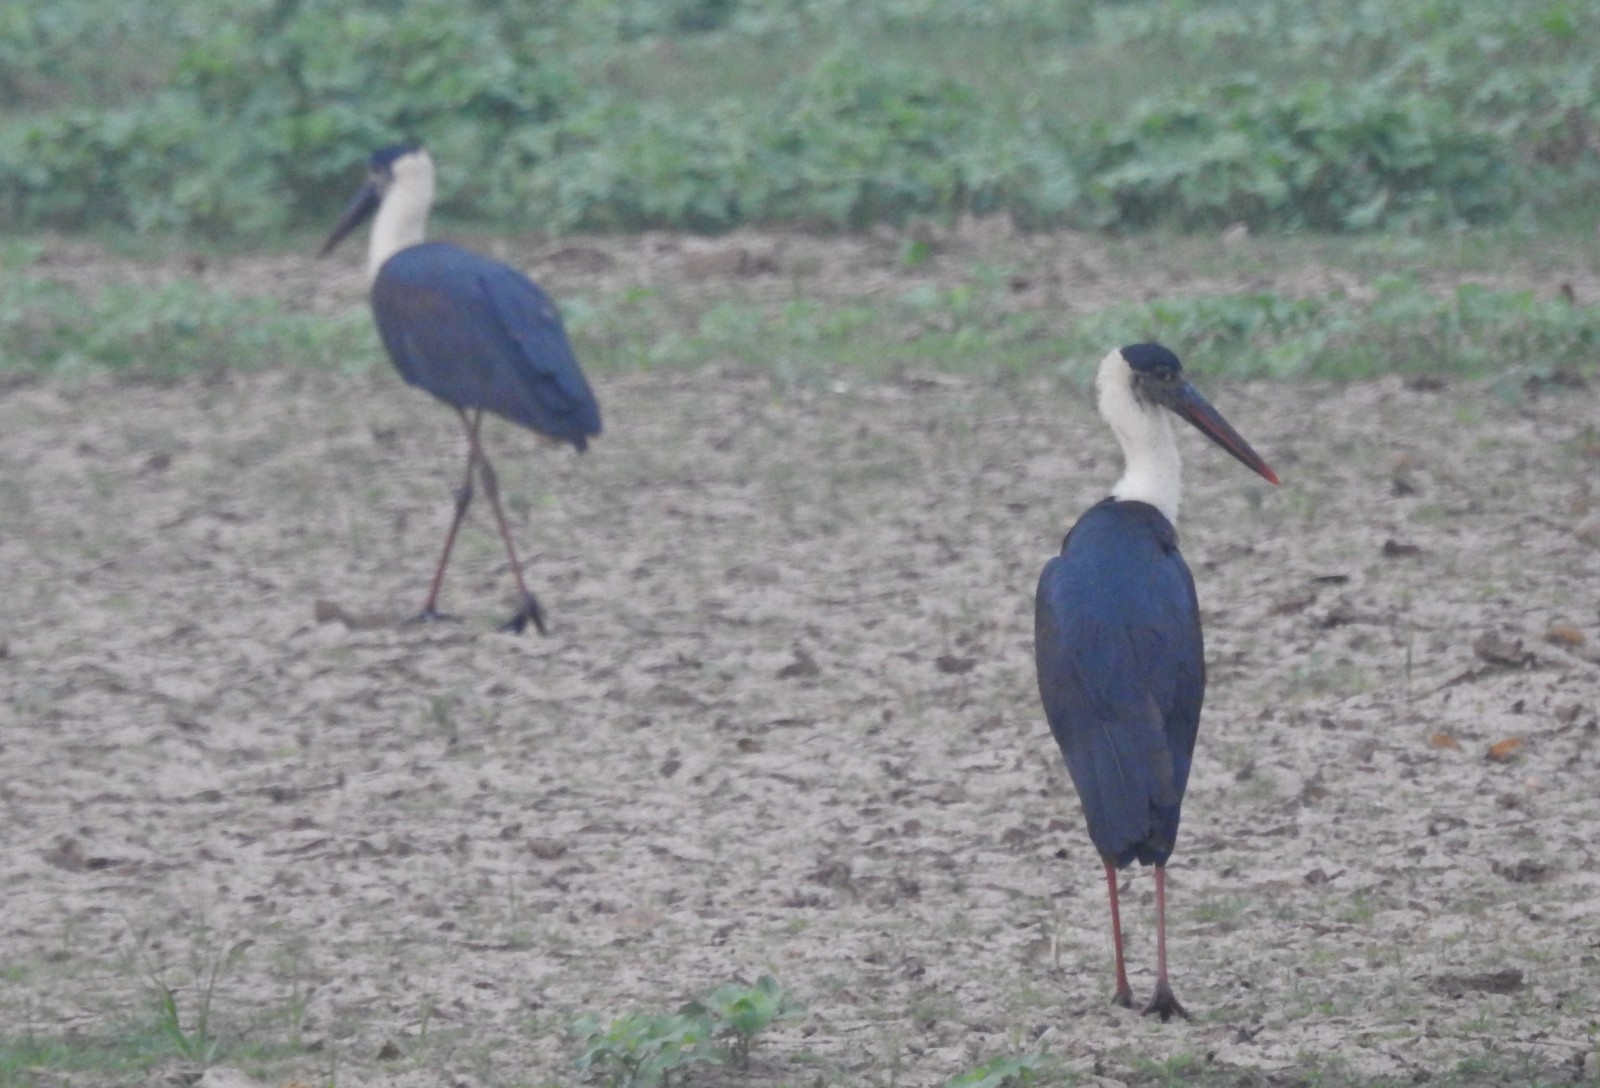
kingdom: Animalia
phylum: Chordata
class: Aves
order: Ciconiiformes
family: Ciconiidae
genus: Ciconia
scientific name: Ciconia episcopus
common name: Woolly-necked stork
